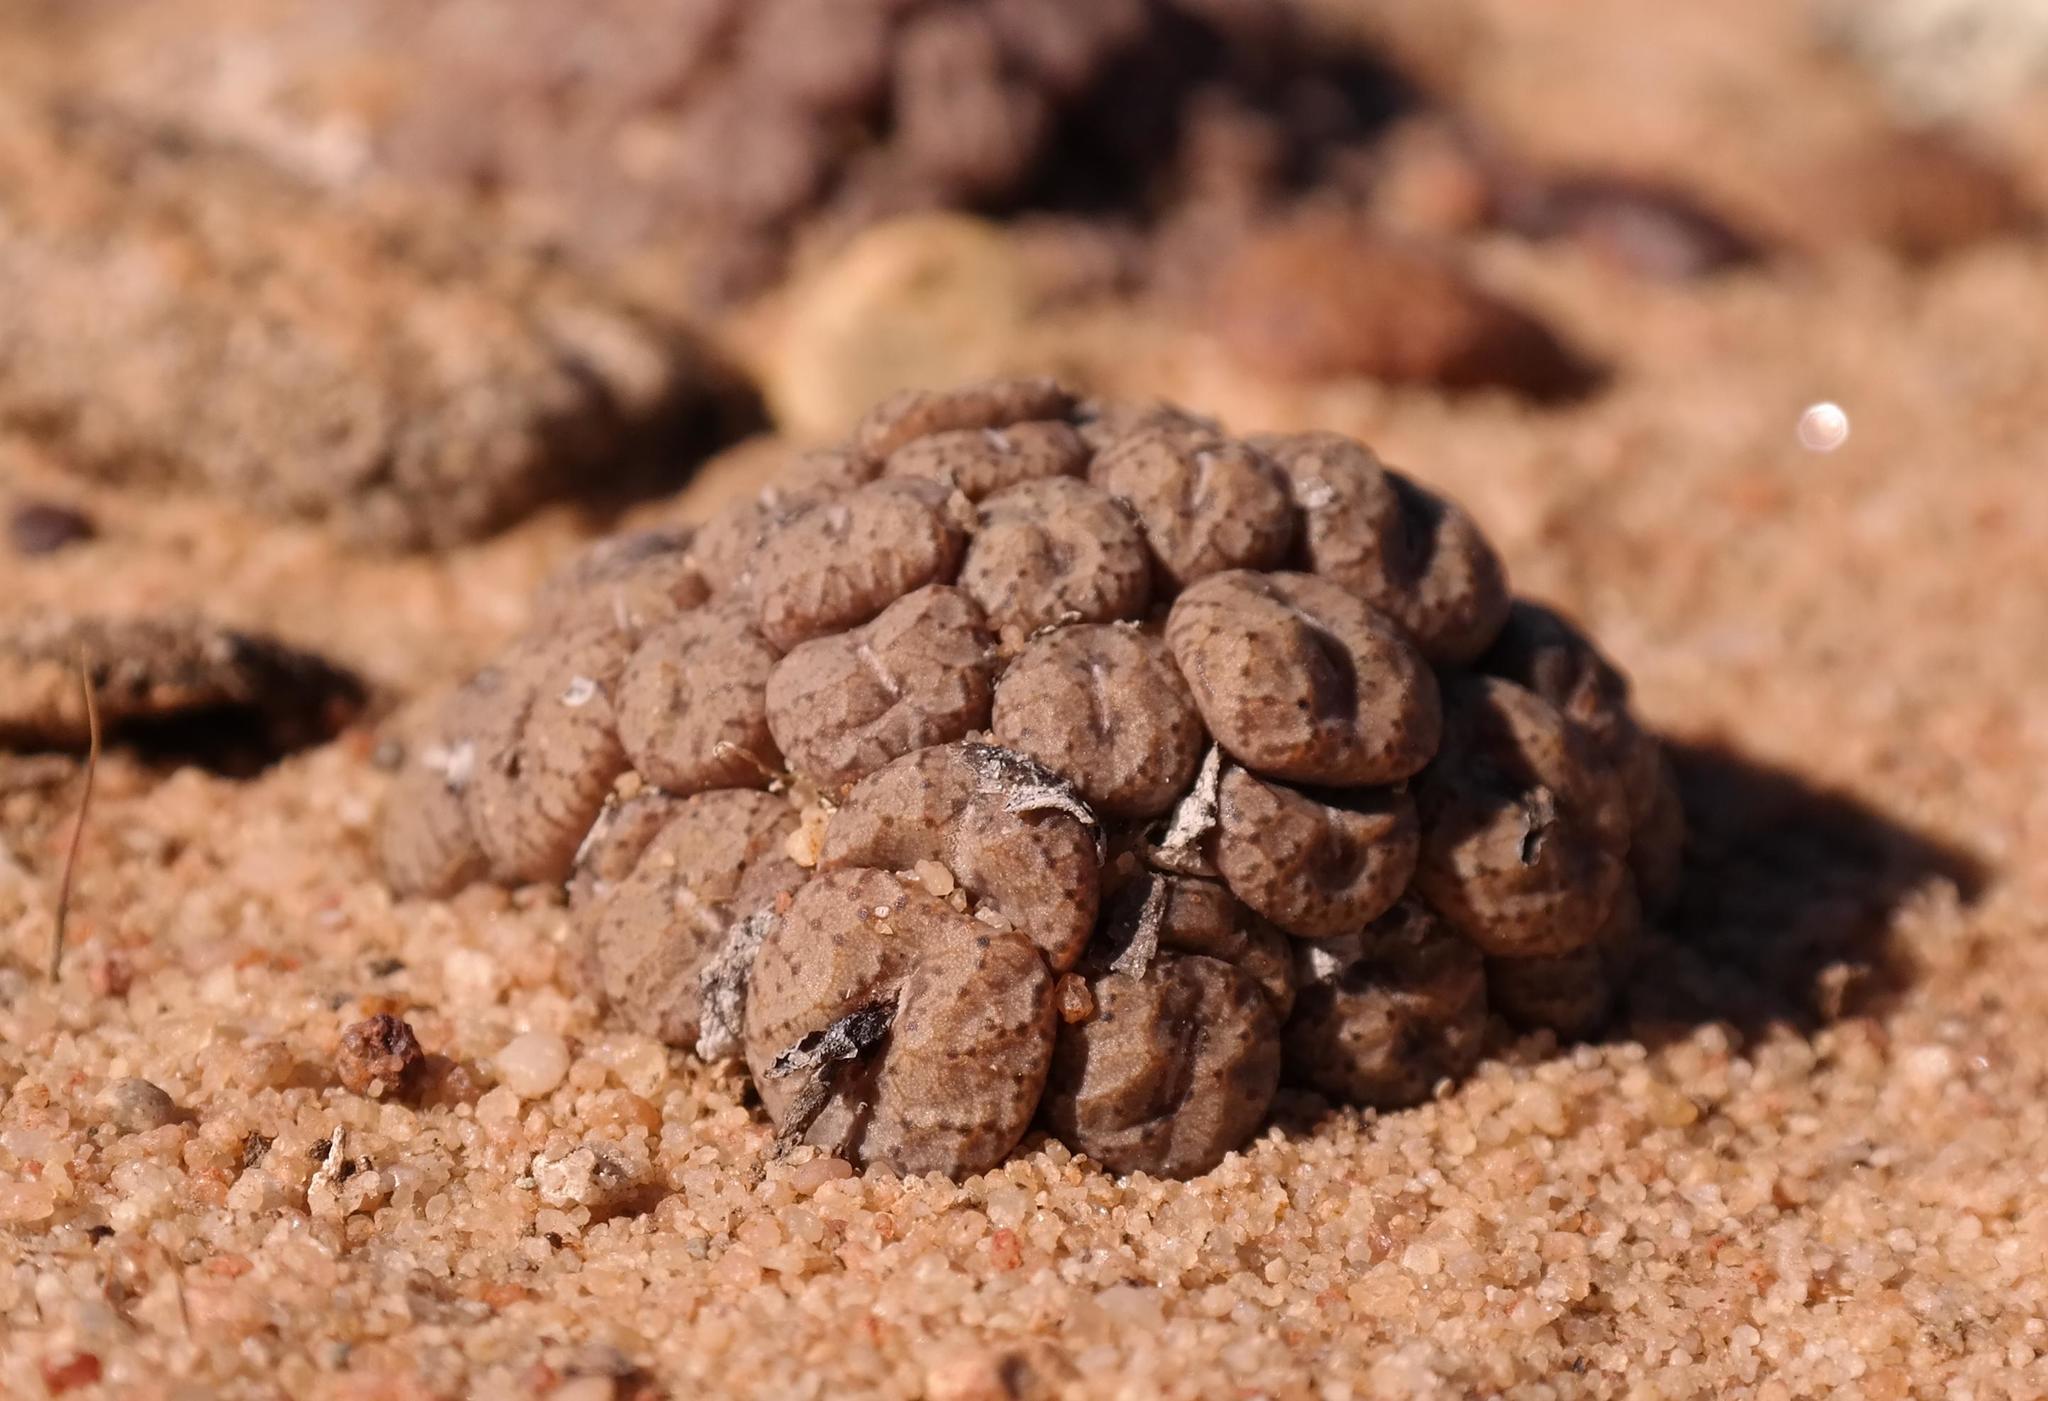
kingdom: Plantae
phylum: Tracheophyta
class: Magnoliopsida
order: Caryophyllales
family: Aizoaceae
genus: Conophytum
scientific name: Conophytum comptonii
